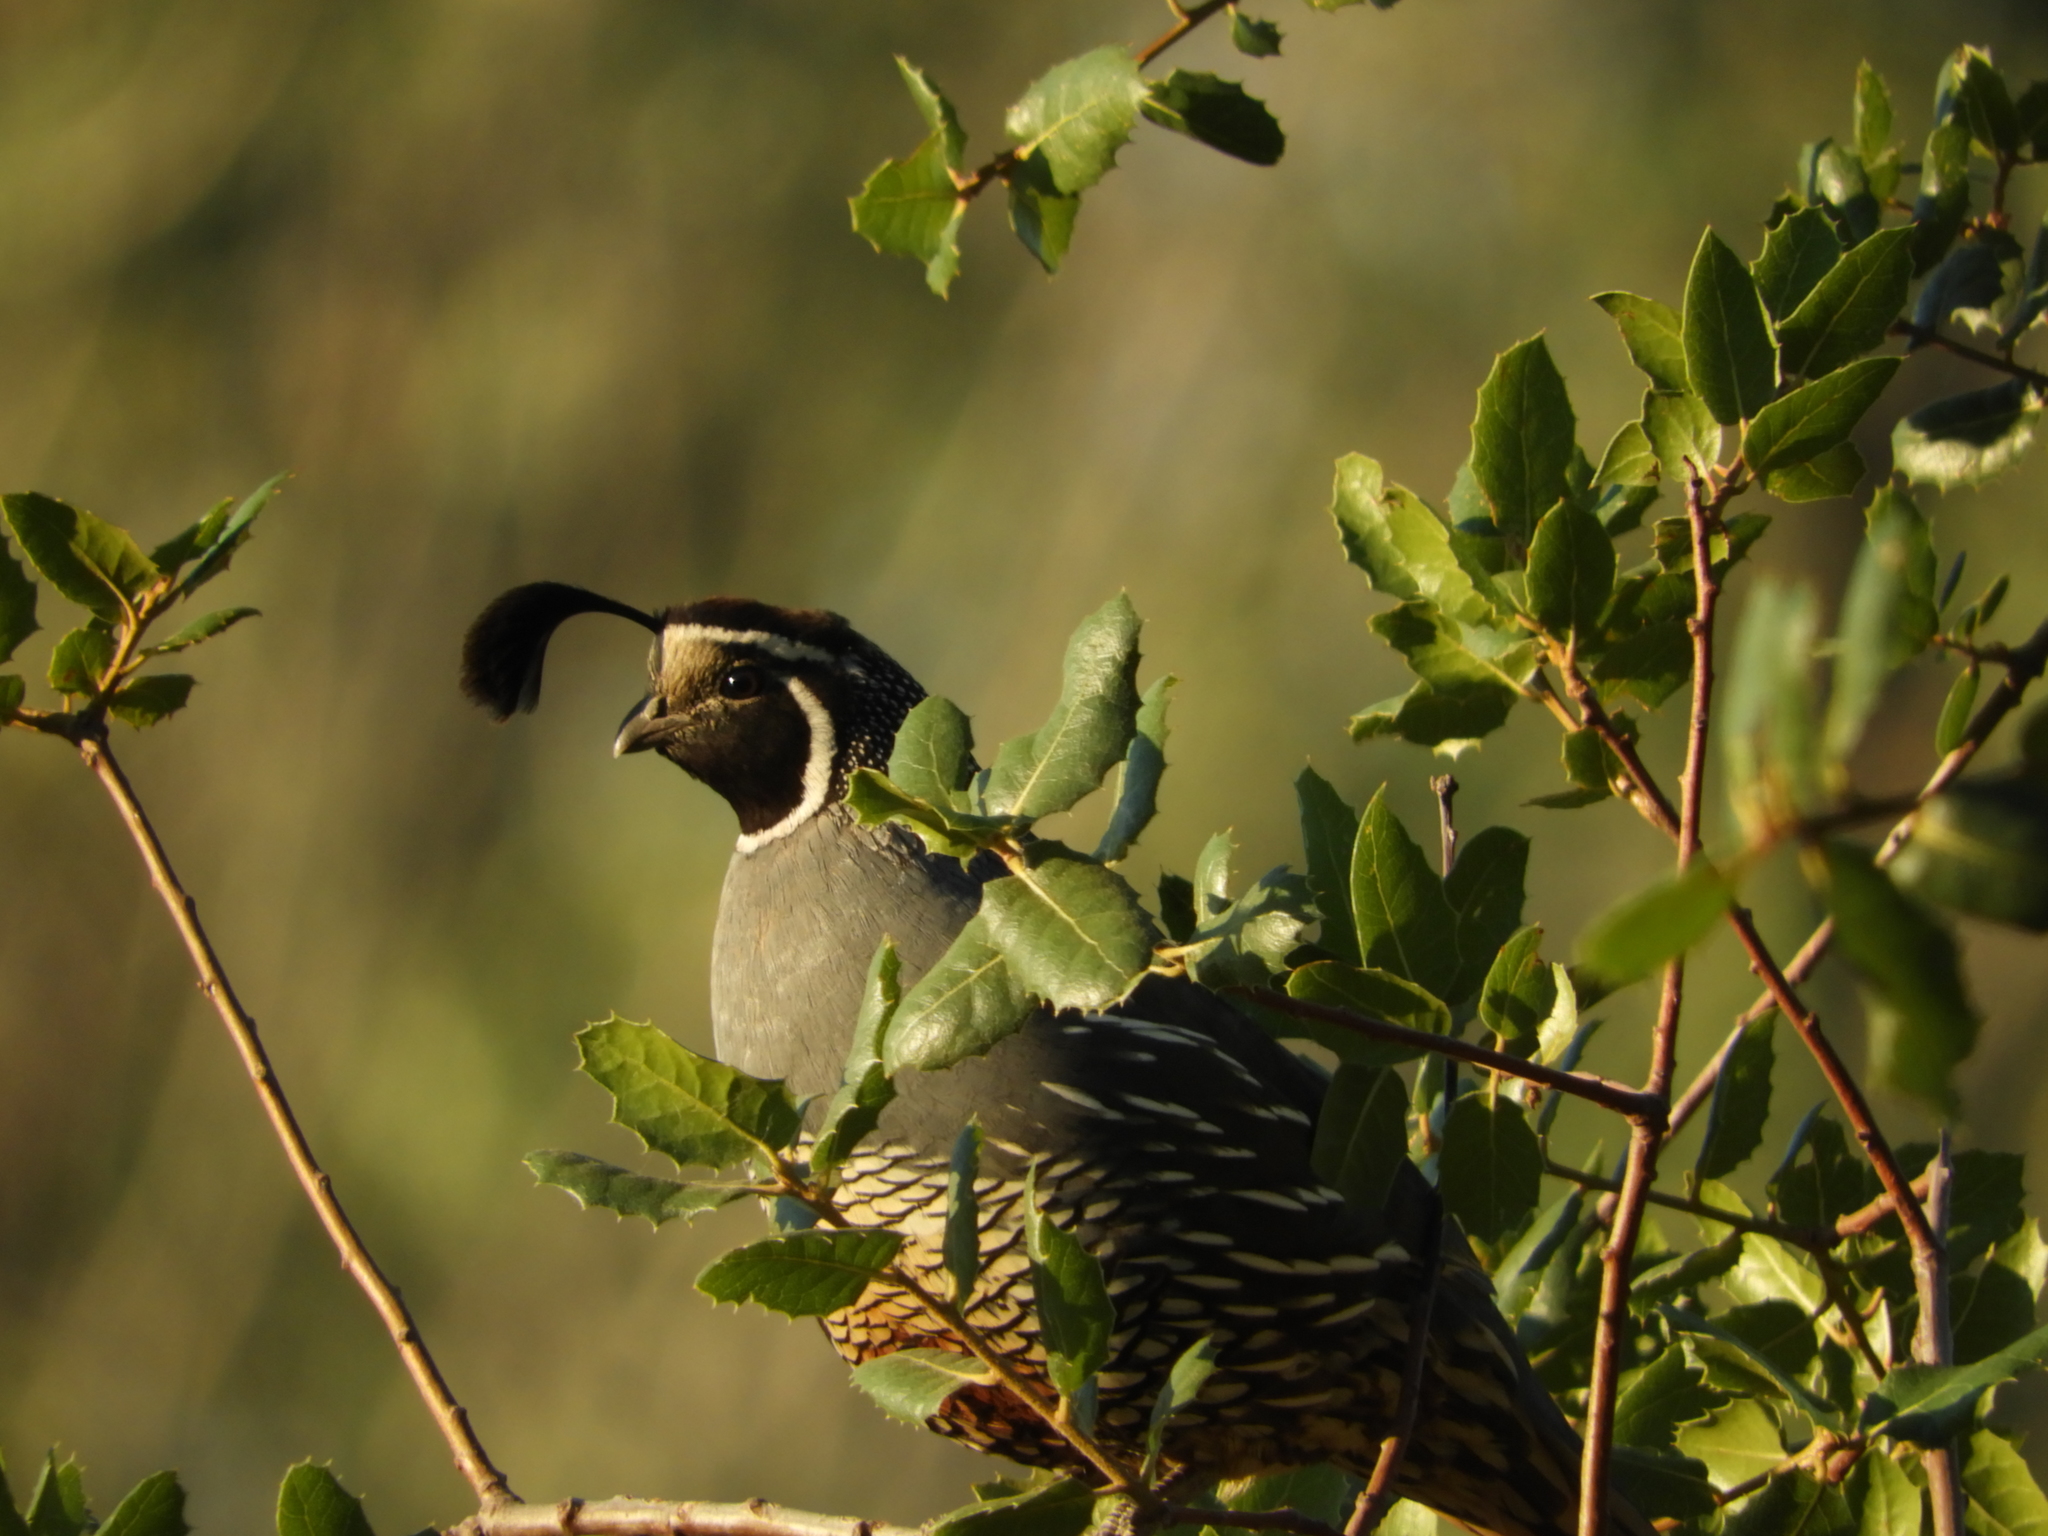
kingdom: Animalia
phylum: Chordata
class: Aves
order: Galliformes
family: Odontophoridae
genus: Callipepla
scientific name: Callipepla californica
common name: California quail
